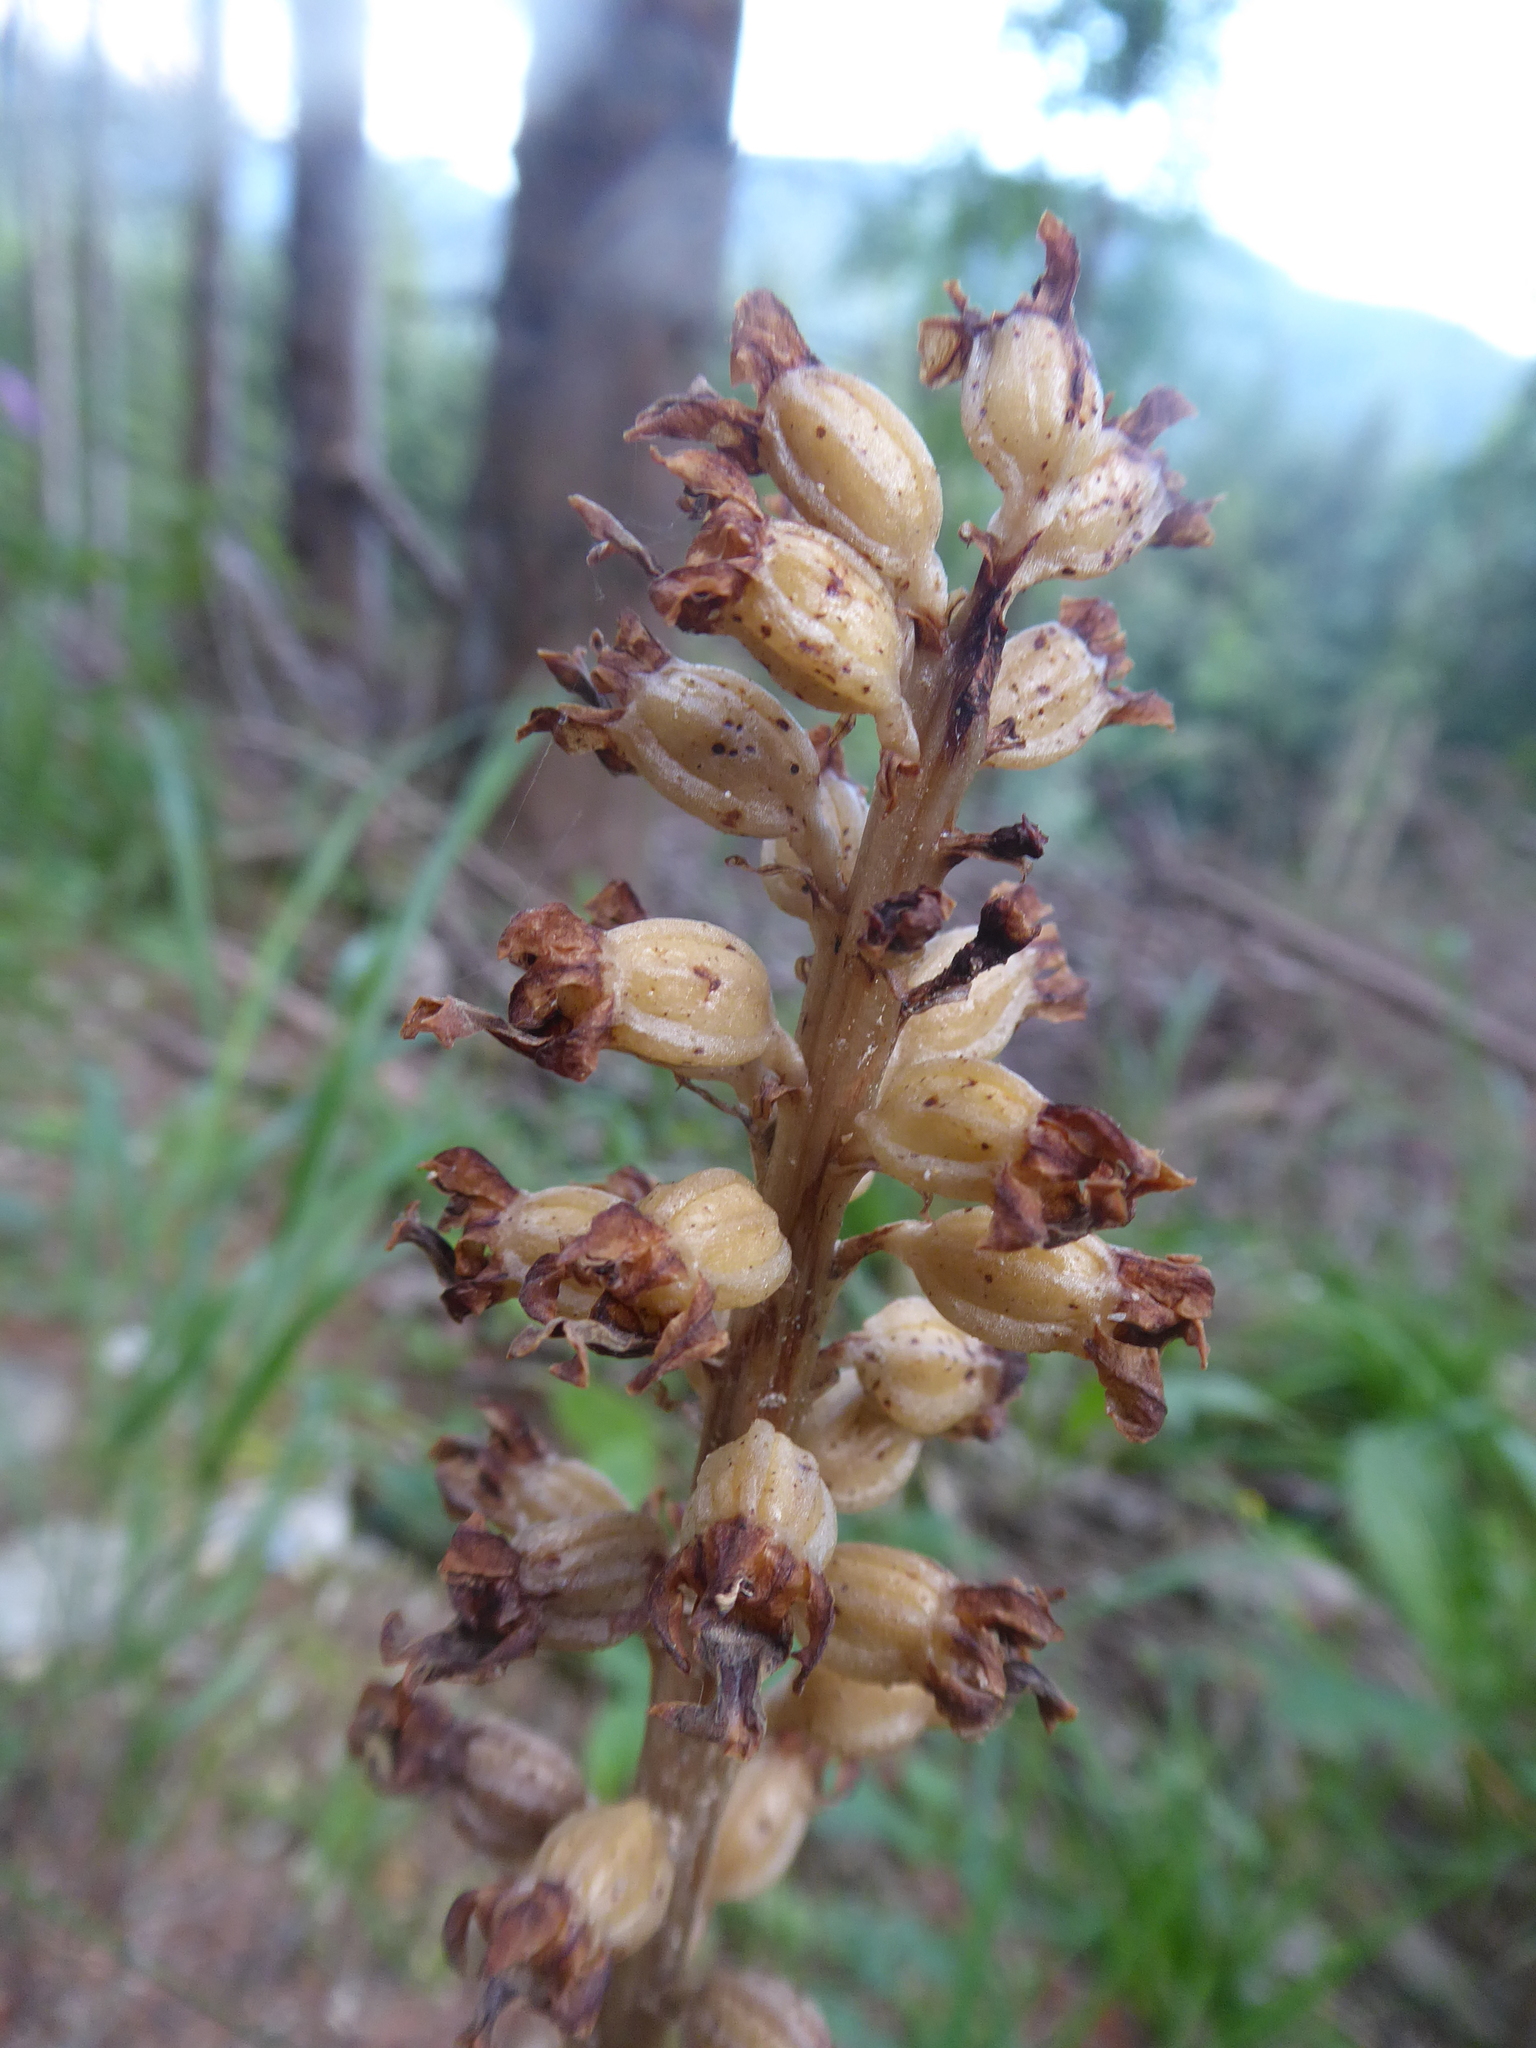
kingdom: Plantae
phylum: Tracheophyta
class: Liliopsida
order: Asparagales
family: Orchidaceae
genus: Neottia
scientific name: Neottia nidus-avis
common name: Bird's-nest orchid
